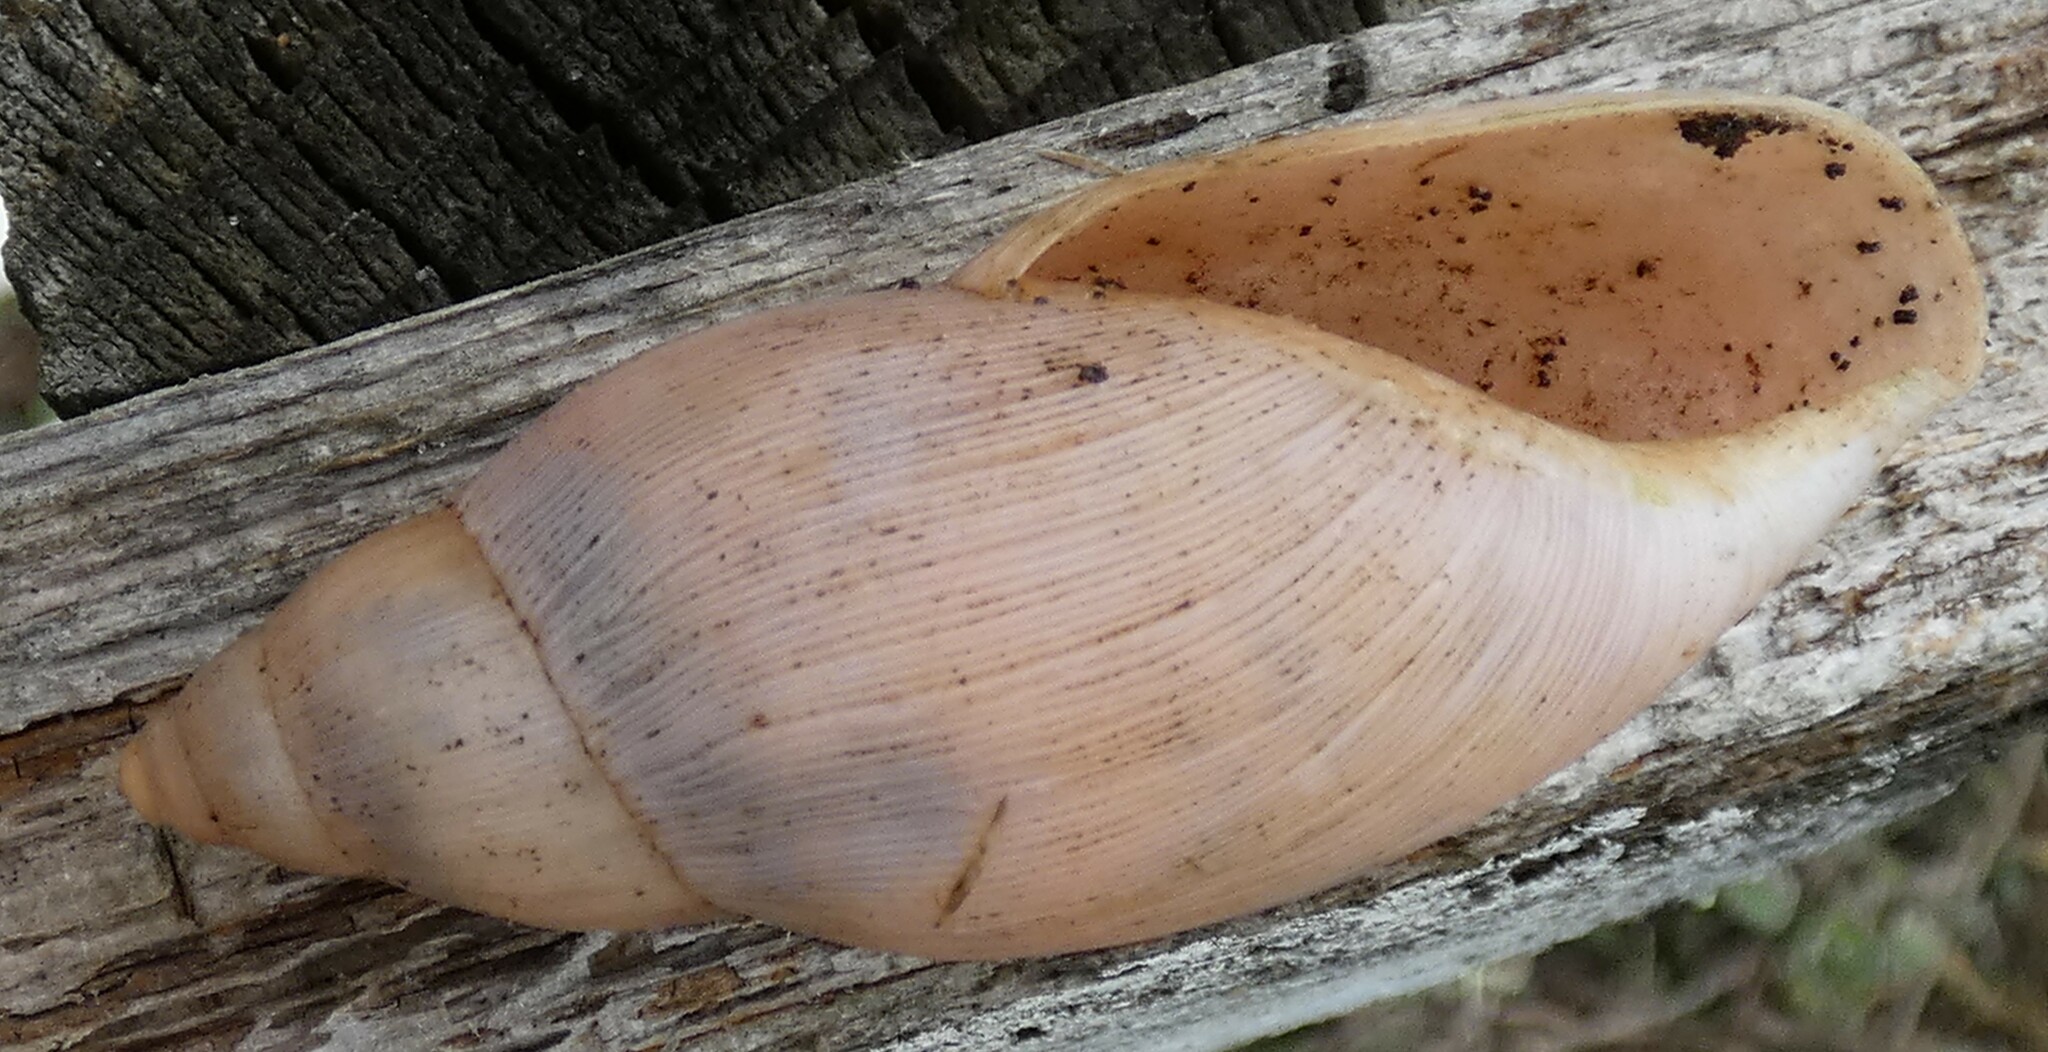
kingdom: Animalia
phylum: Mollusca
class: Gastropoda
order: Stylommatophora
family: Spiraxidae
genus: Euglandina
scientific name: Euglandina rosea
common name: Rosy wolfsnail
